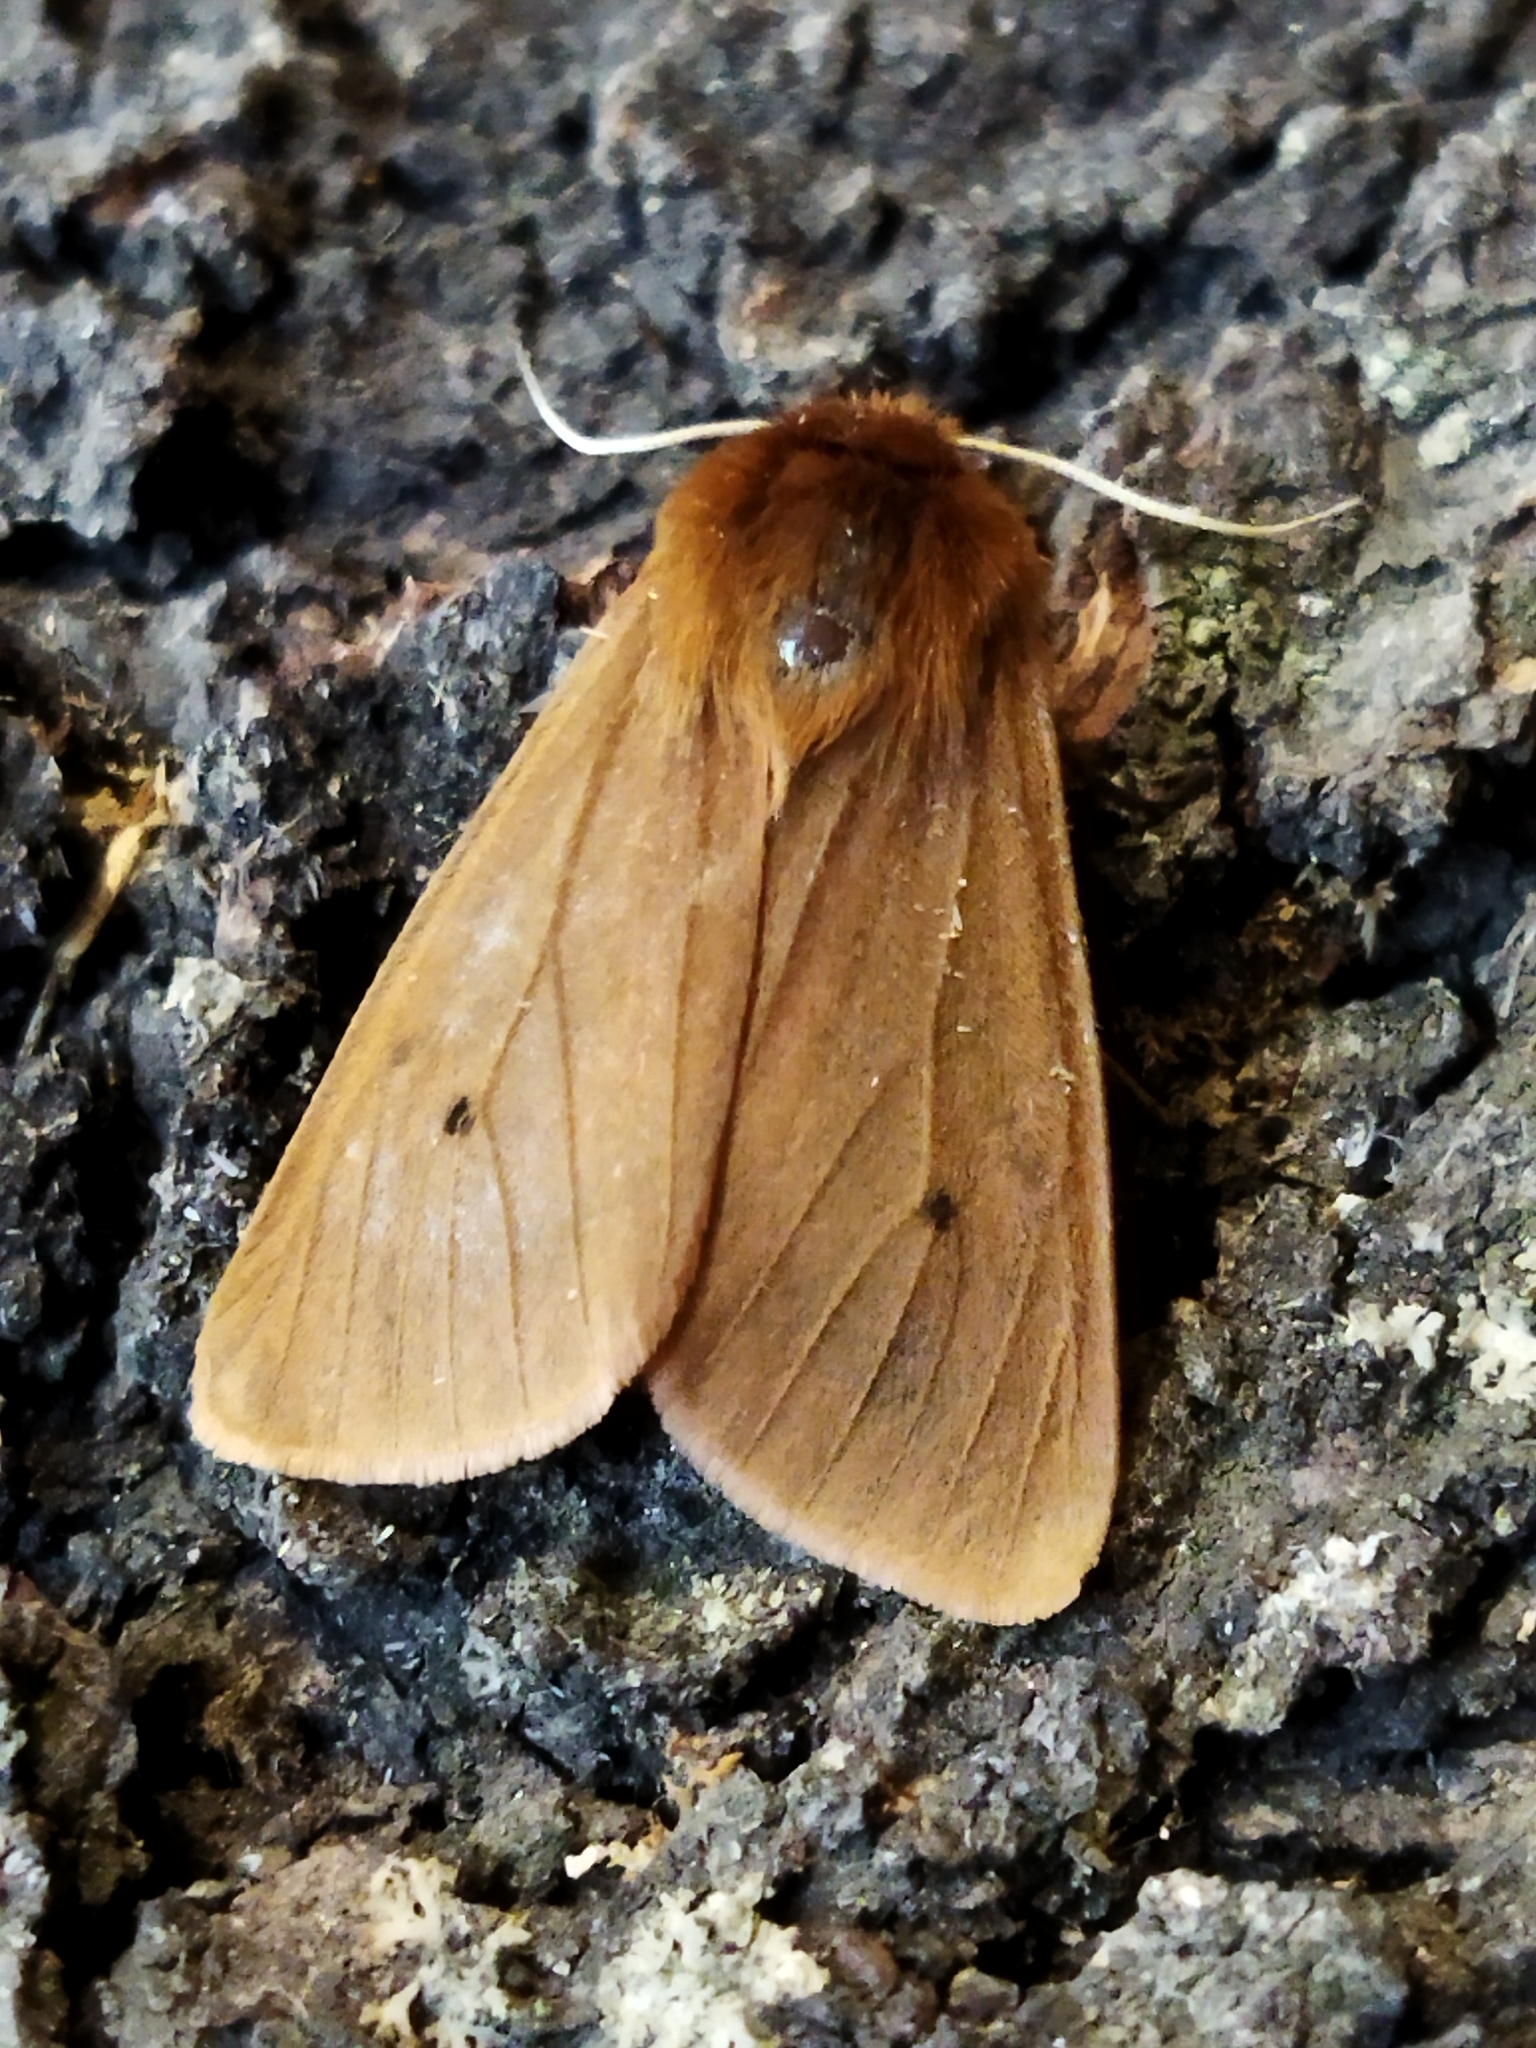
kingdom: Animalia
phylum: Arthropoda
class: Insecta
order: Lepidoptera
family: Erebidae
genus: Phragmatobia
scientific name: Phragmatobia fuliginosa
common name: Ruby tiger
